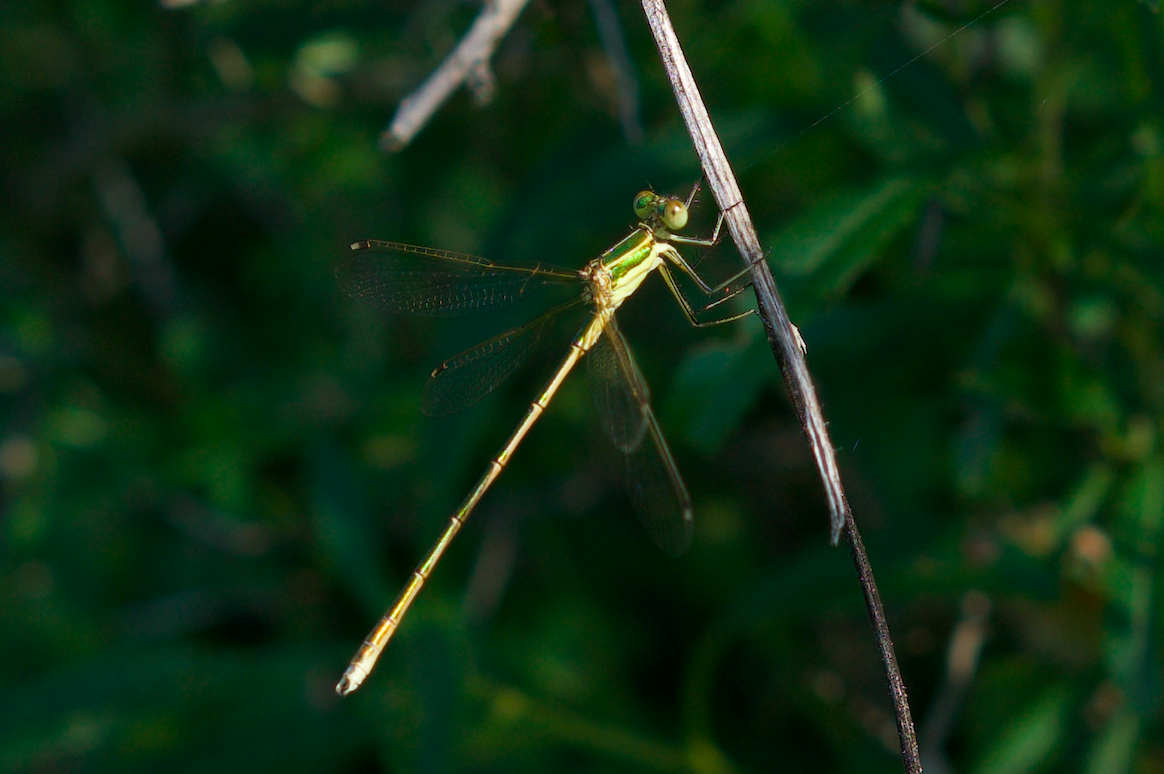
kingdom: Animalia
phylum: Arthropoda
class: Insecta
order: Odonata
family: Lestidae
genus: Lestes
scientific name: Lestes barbarus
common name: Migrant spreadwing
